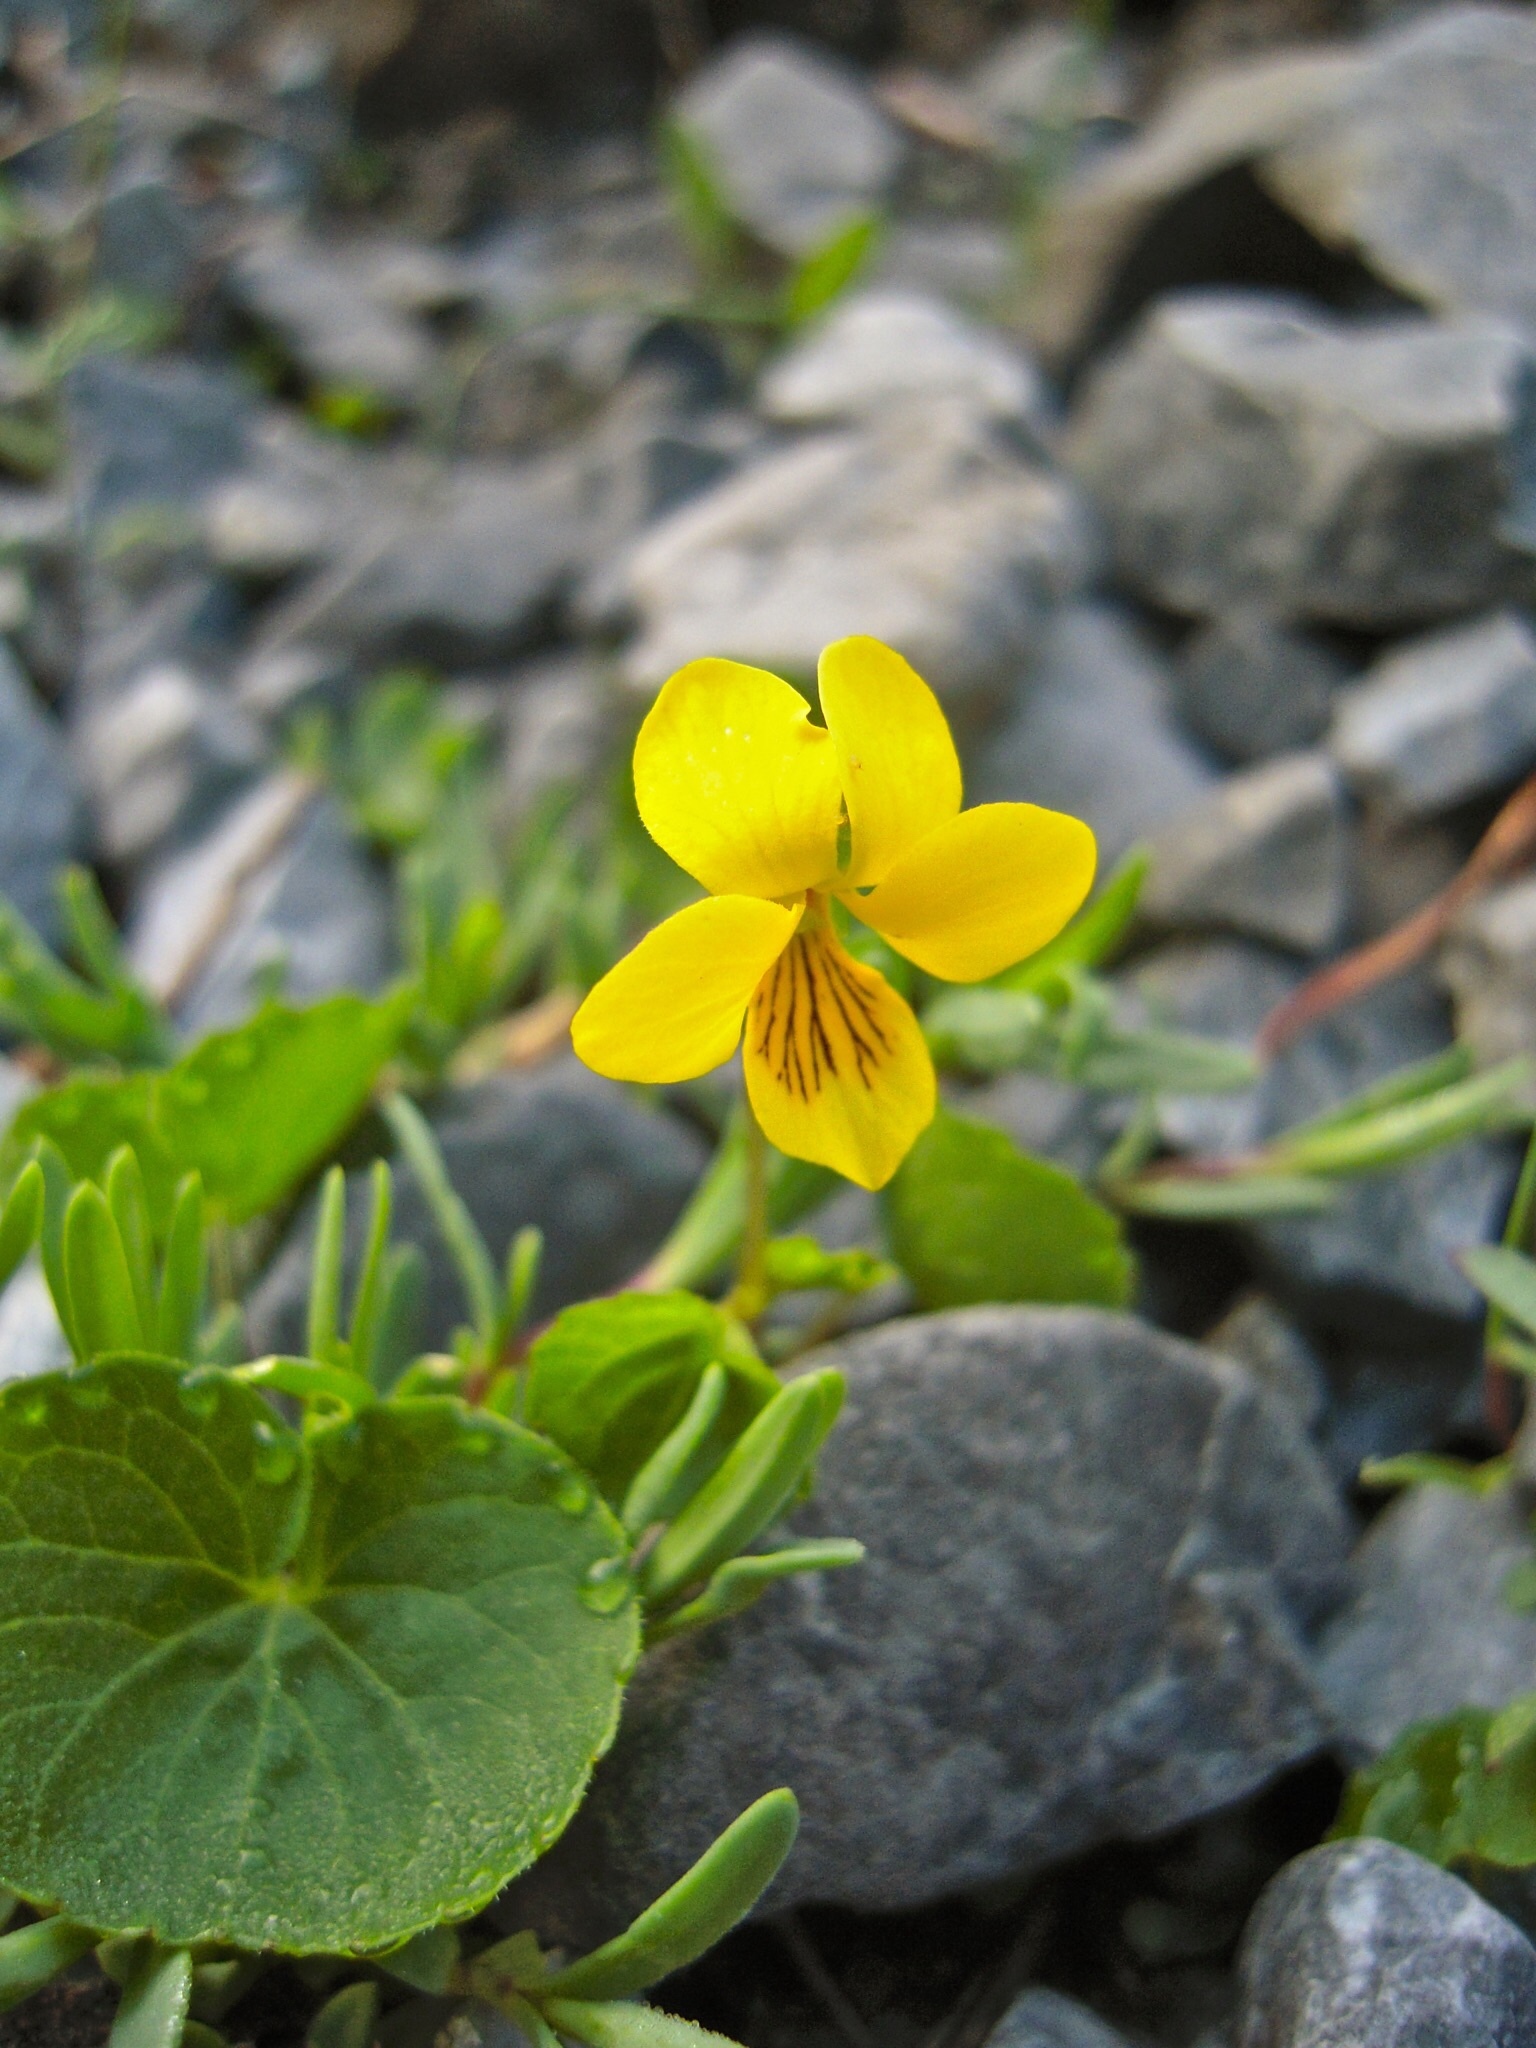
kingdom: Plantae
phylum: Tracheophyta
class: Magnoliopsida
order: Malpighiales
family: Violaceae
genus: Viola
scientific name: Viola biflora
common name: Alpine yellow violet
